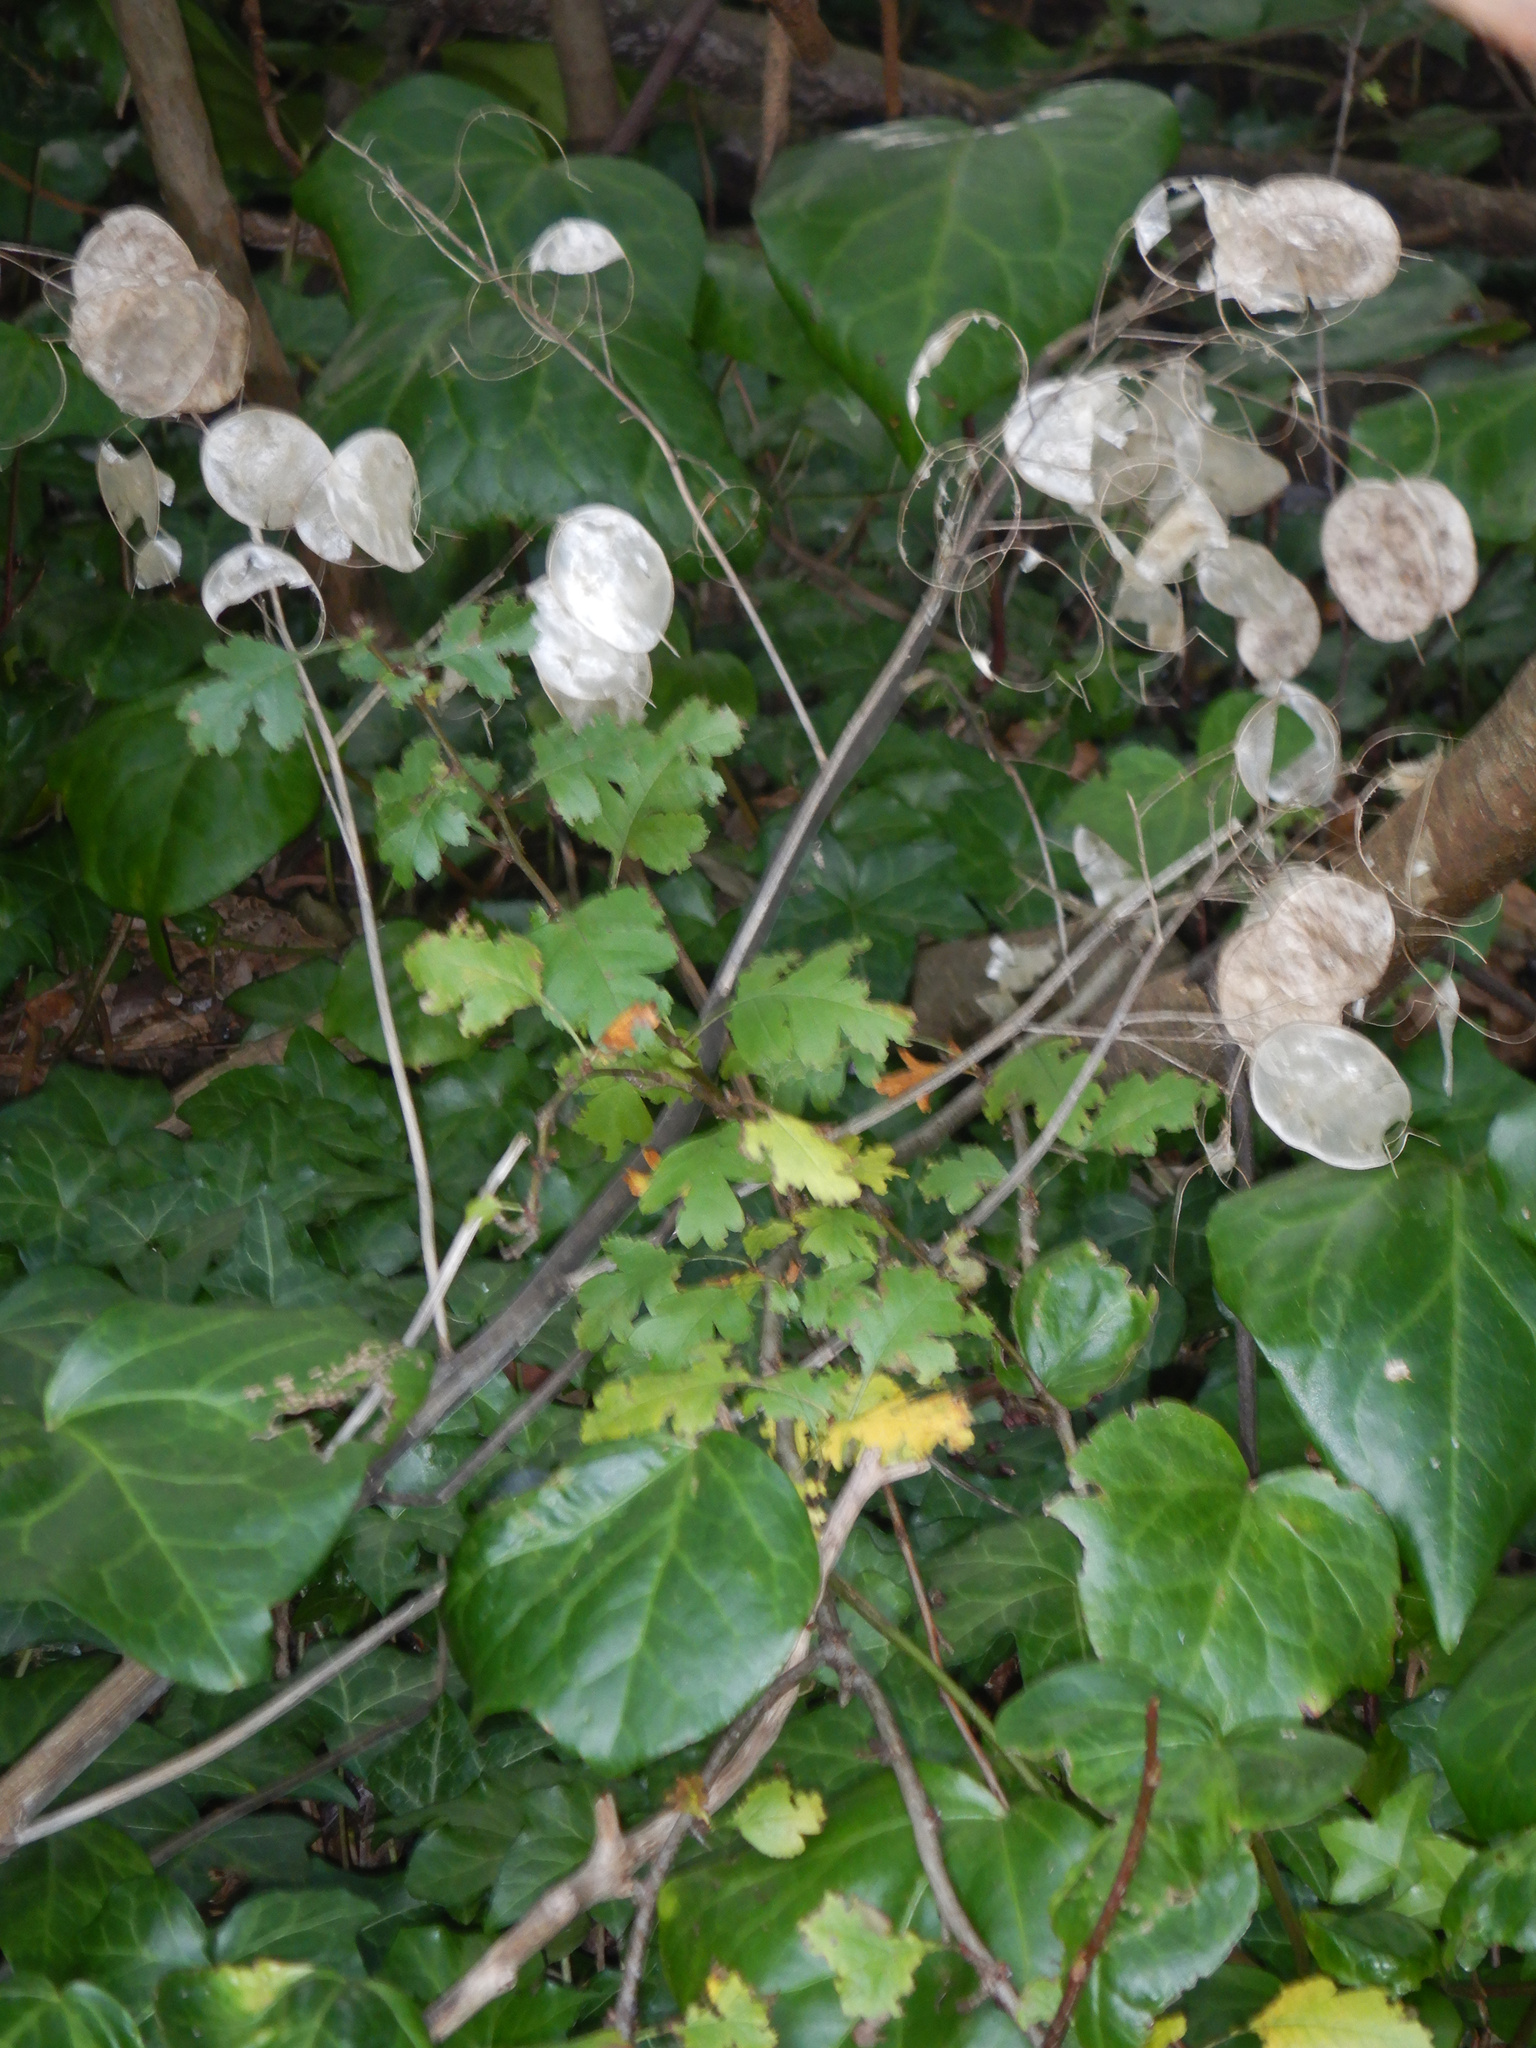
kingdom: Plantae
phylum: Tracheophyta
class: Magnoliopsida
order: Brassicales
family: Brassicaceae
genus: Lunaria
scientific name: Lunaria annua
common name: Honesty
